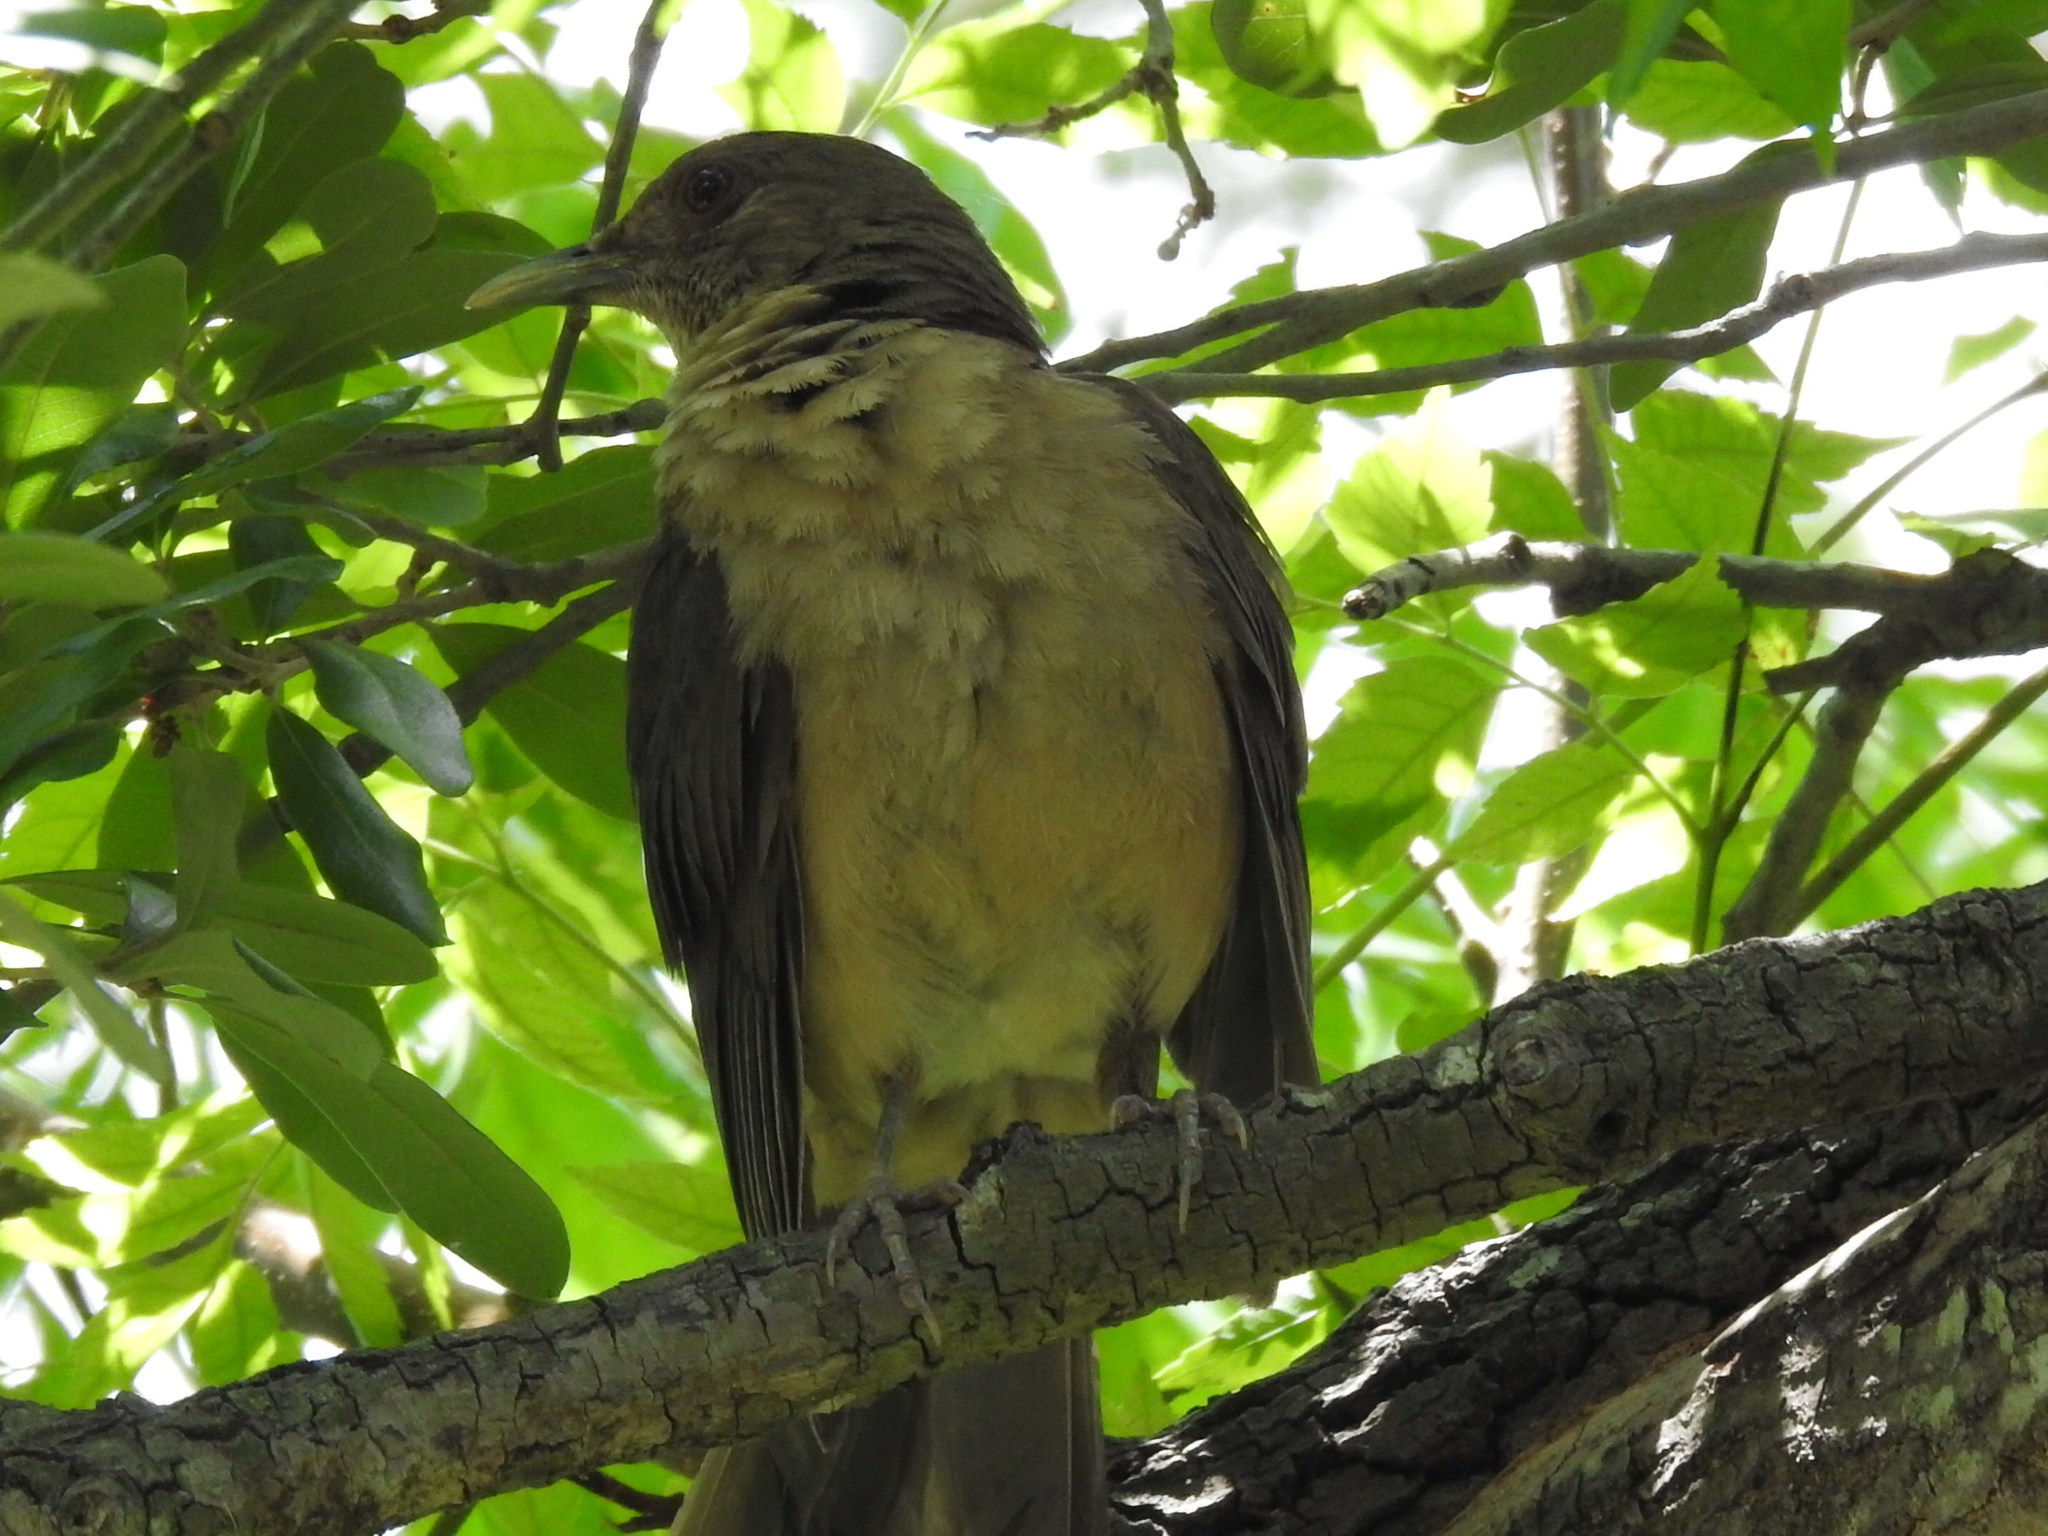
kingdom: Animalia
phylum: Chordata
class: Aves
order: Passeriformes
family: Turdidae
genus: Turdus
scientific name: Turdus grayi
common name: Clay-colored thrush
